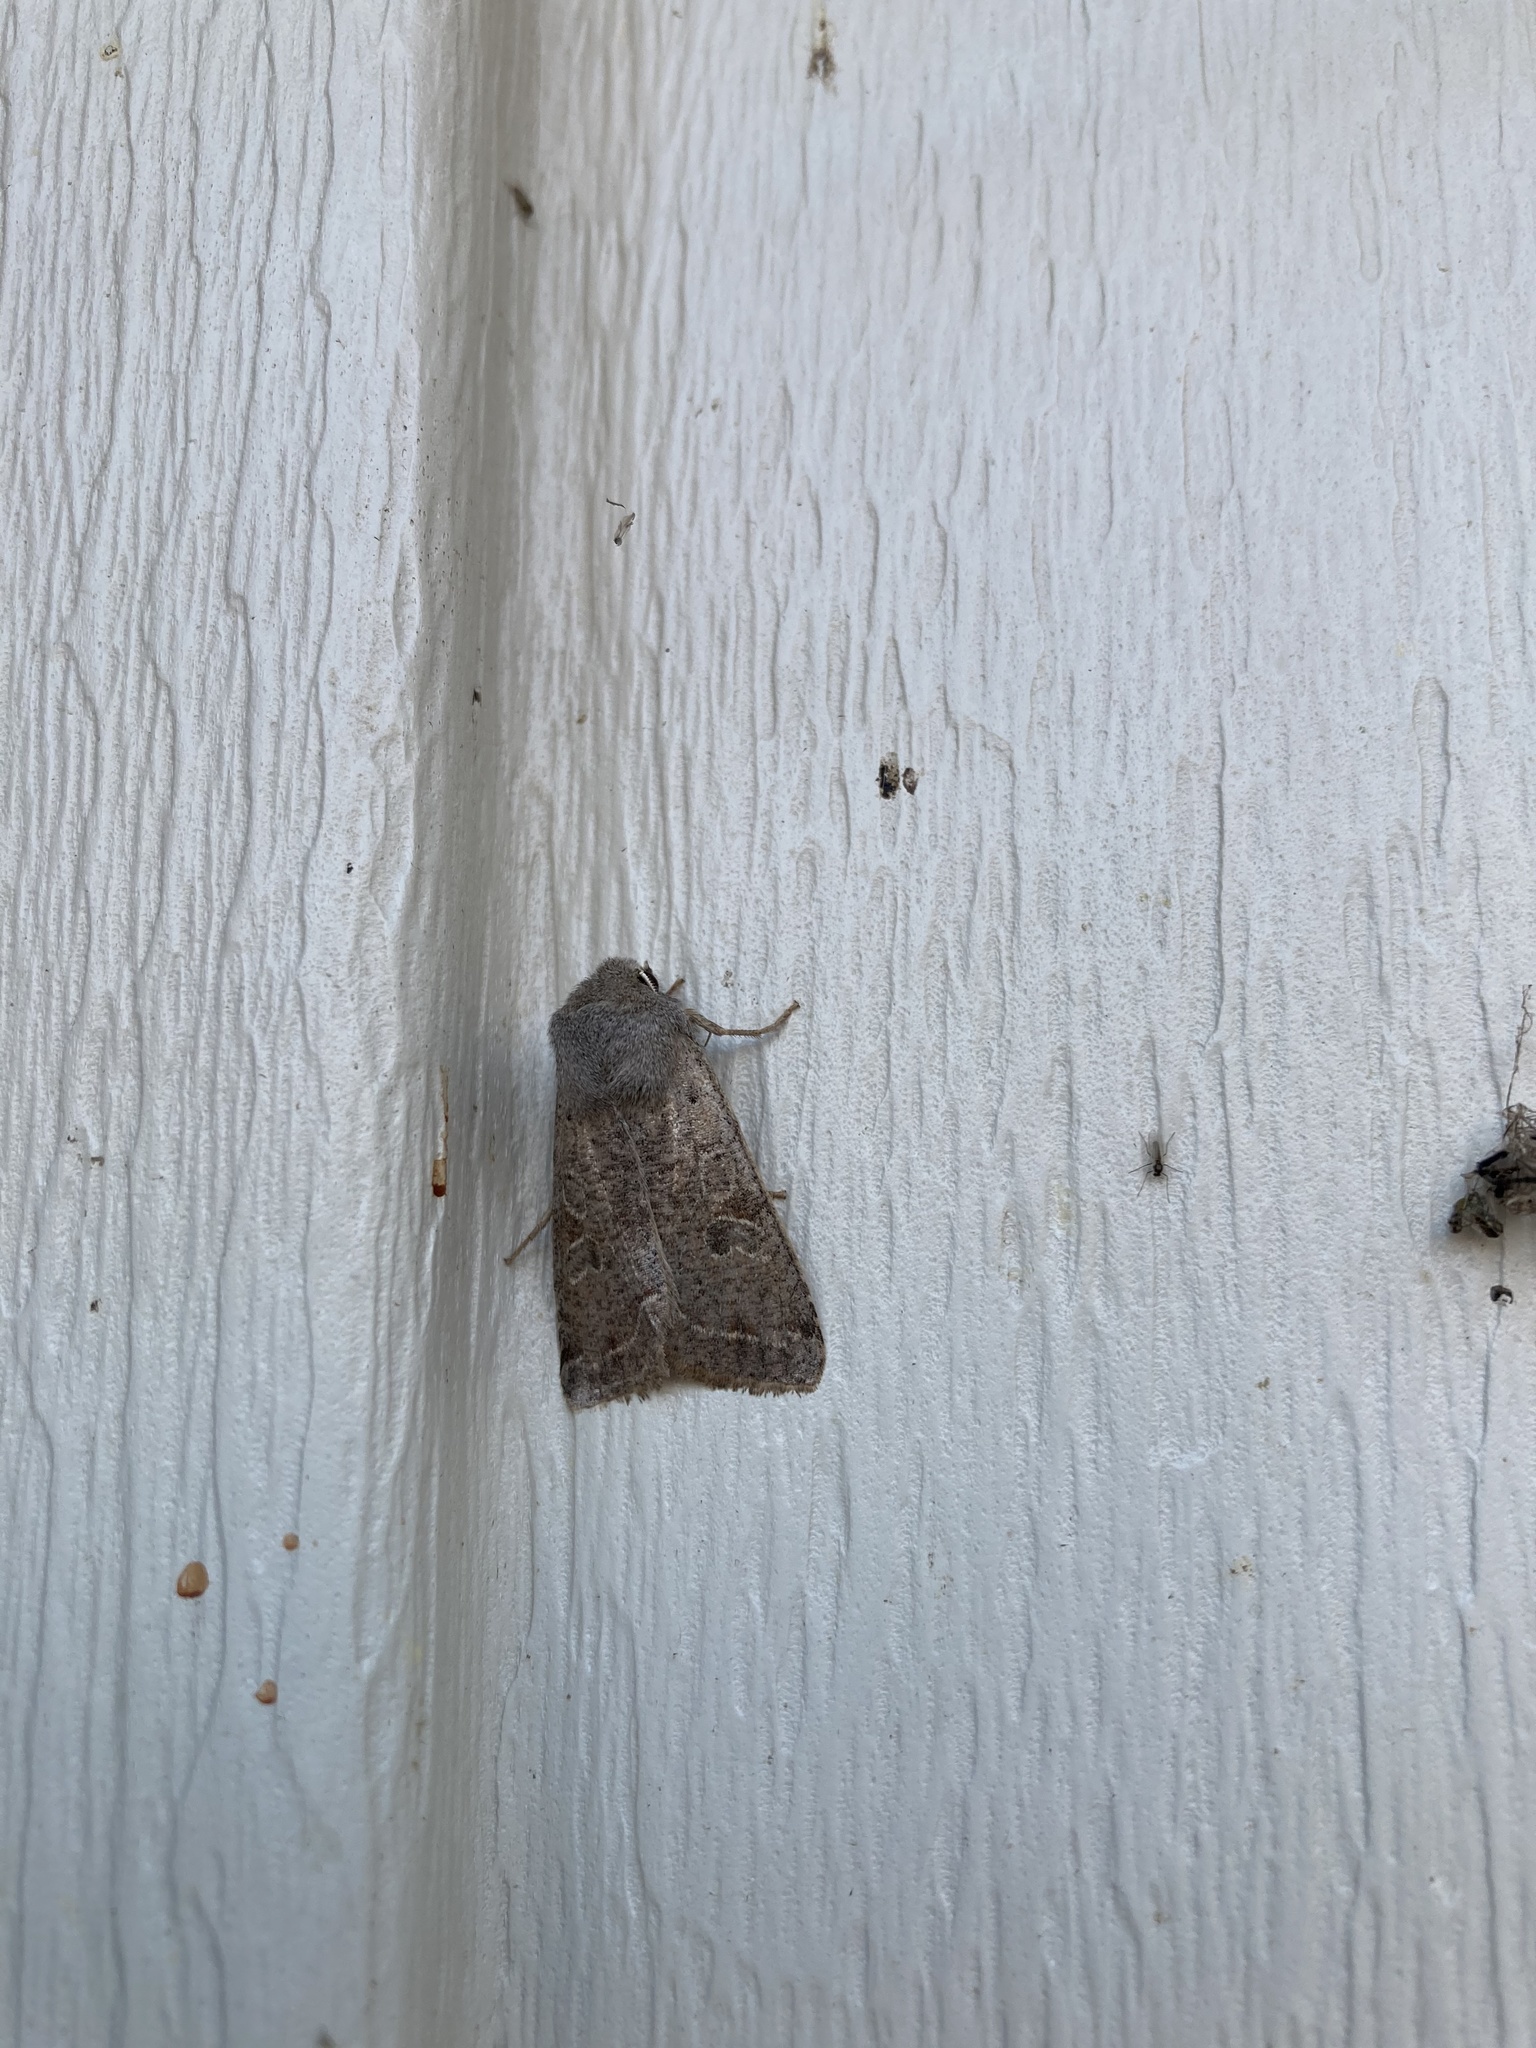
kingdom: Animalia
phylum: Arthropoda
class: Insecta
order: Lepidoptera
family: Noctuidae
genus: Orthosia
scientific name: Orthosia hibisci
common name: Green fruitworm
